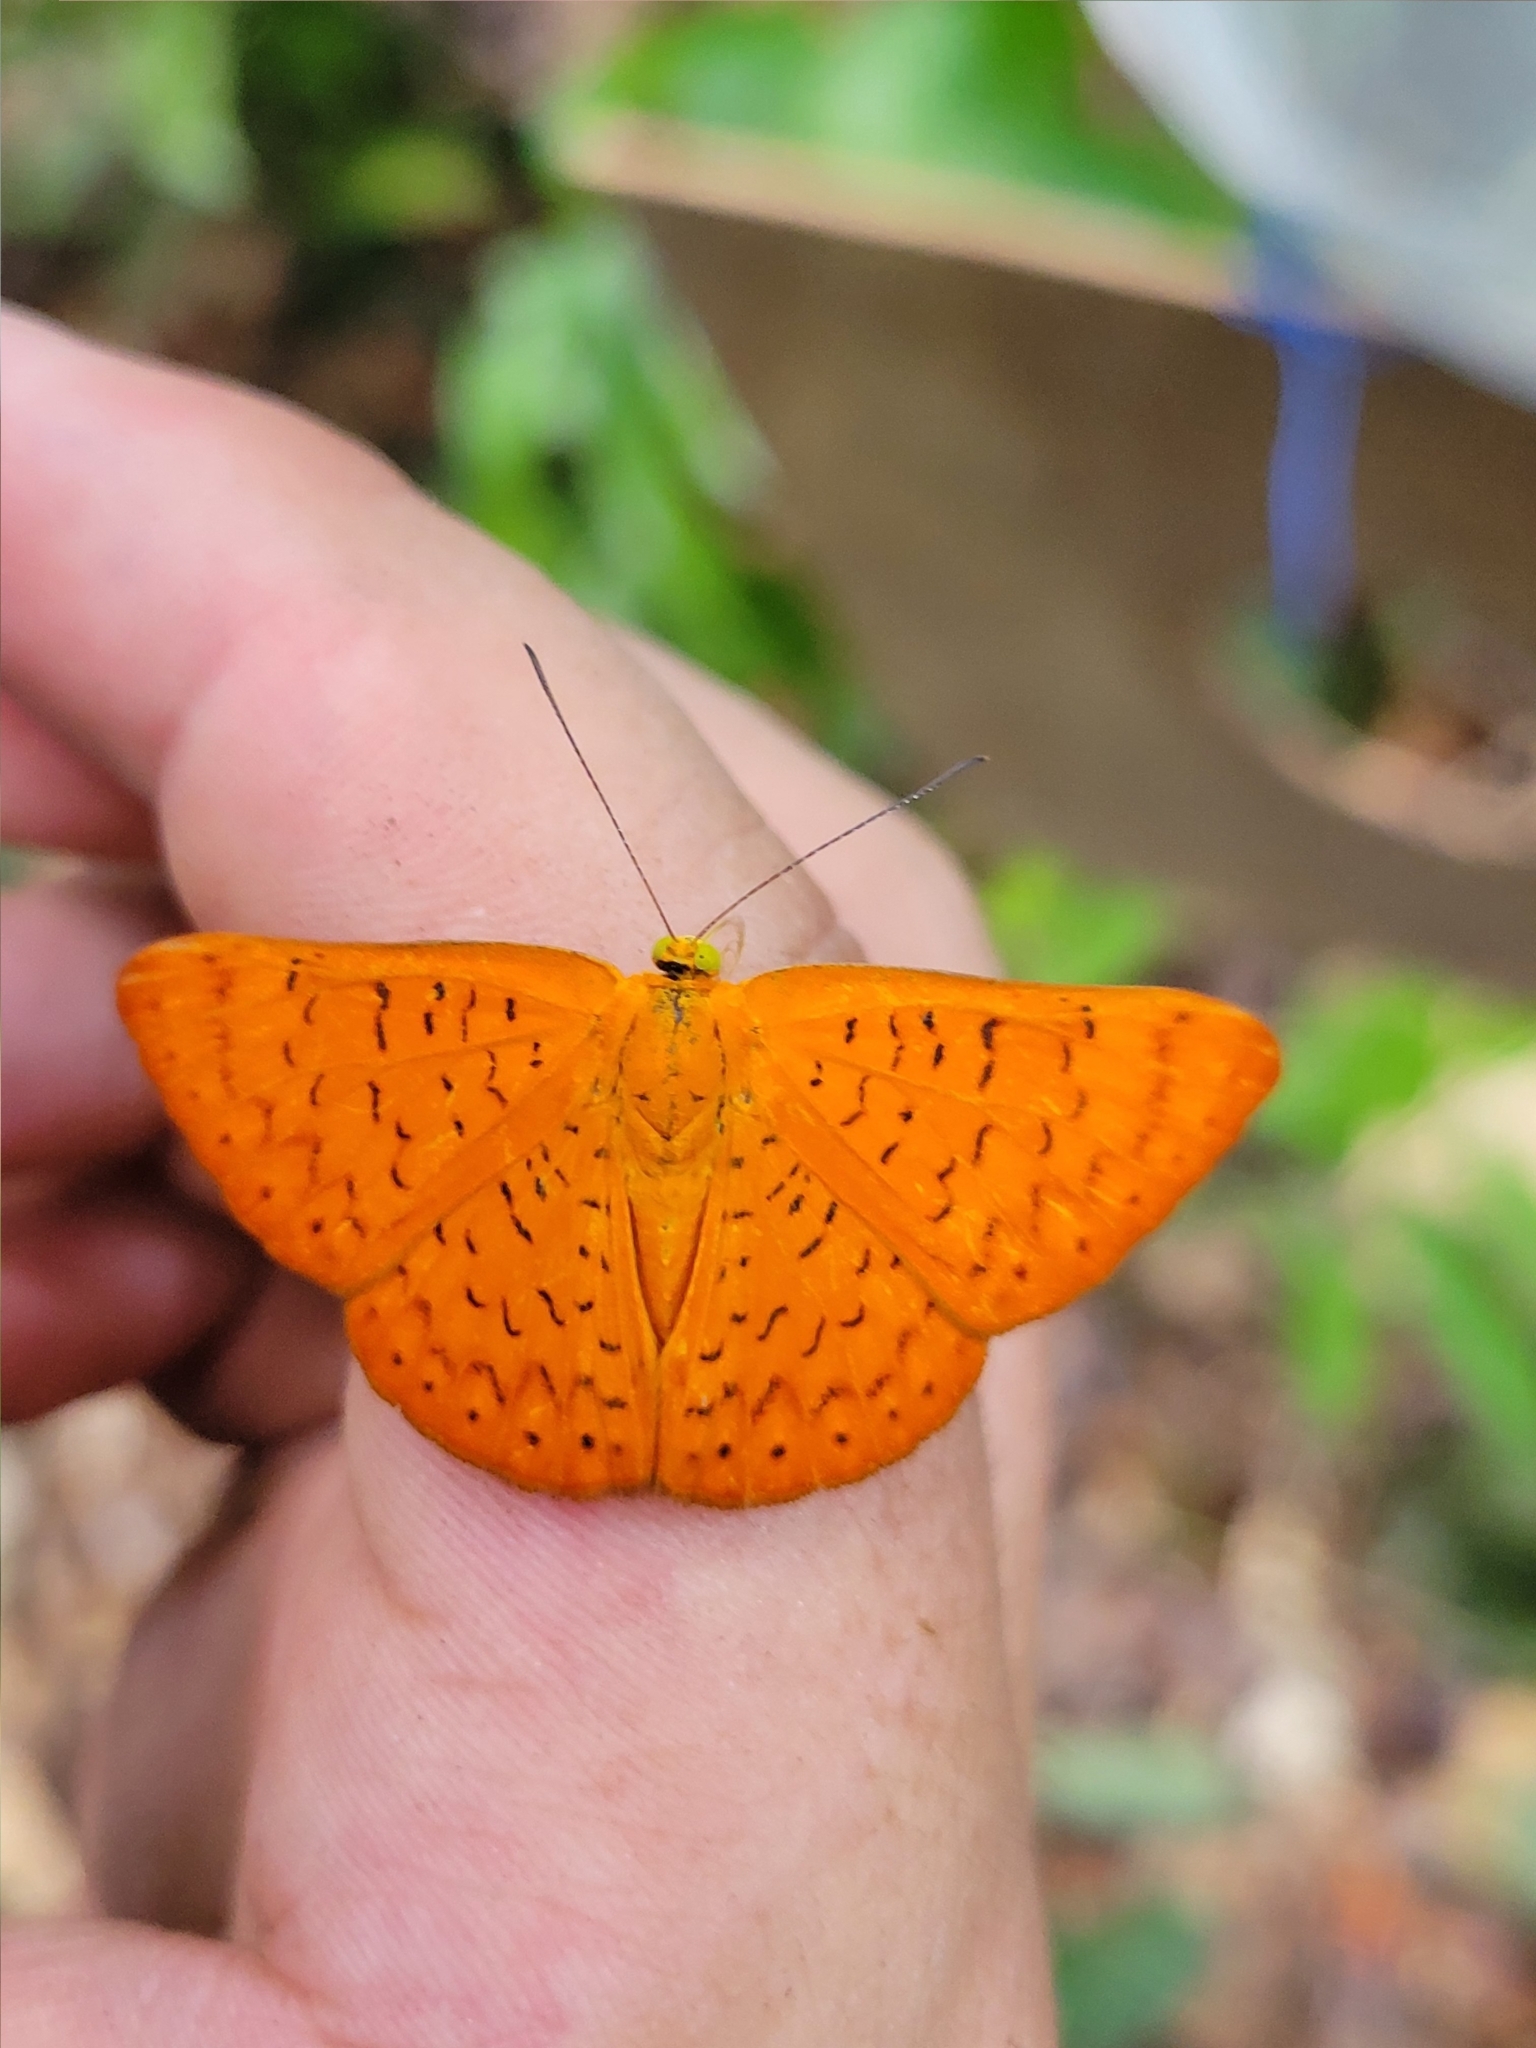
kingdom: Animalia
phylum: Arthropoda
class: Insecta
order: Lepidoptera
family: Lycaenidae
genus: Emesis
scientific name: Emesis fatima
